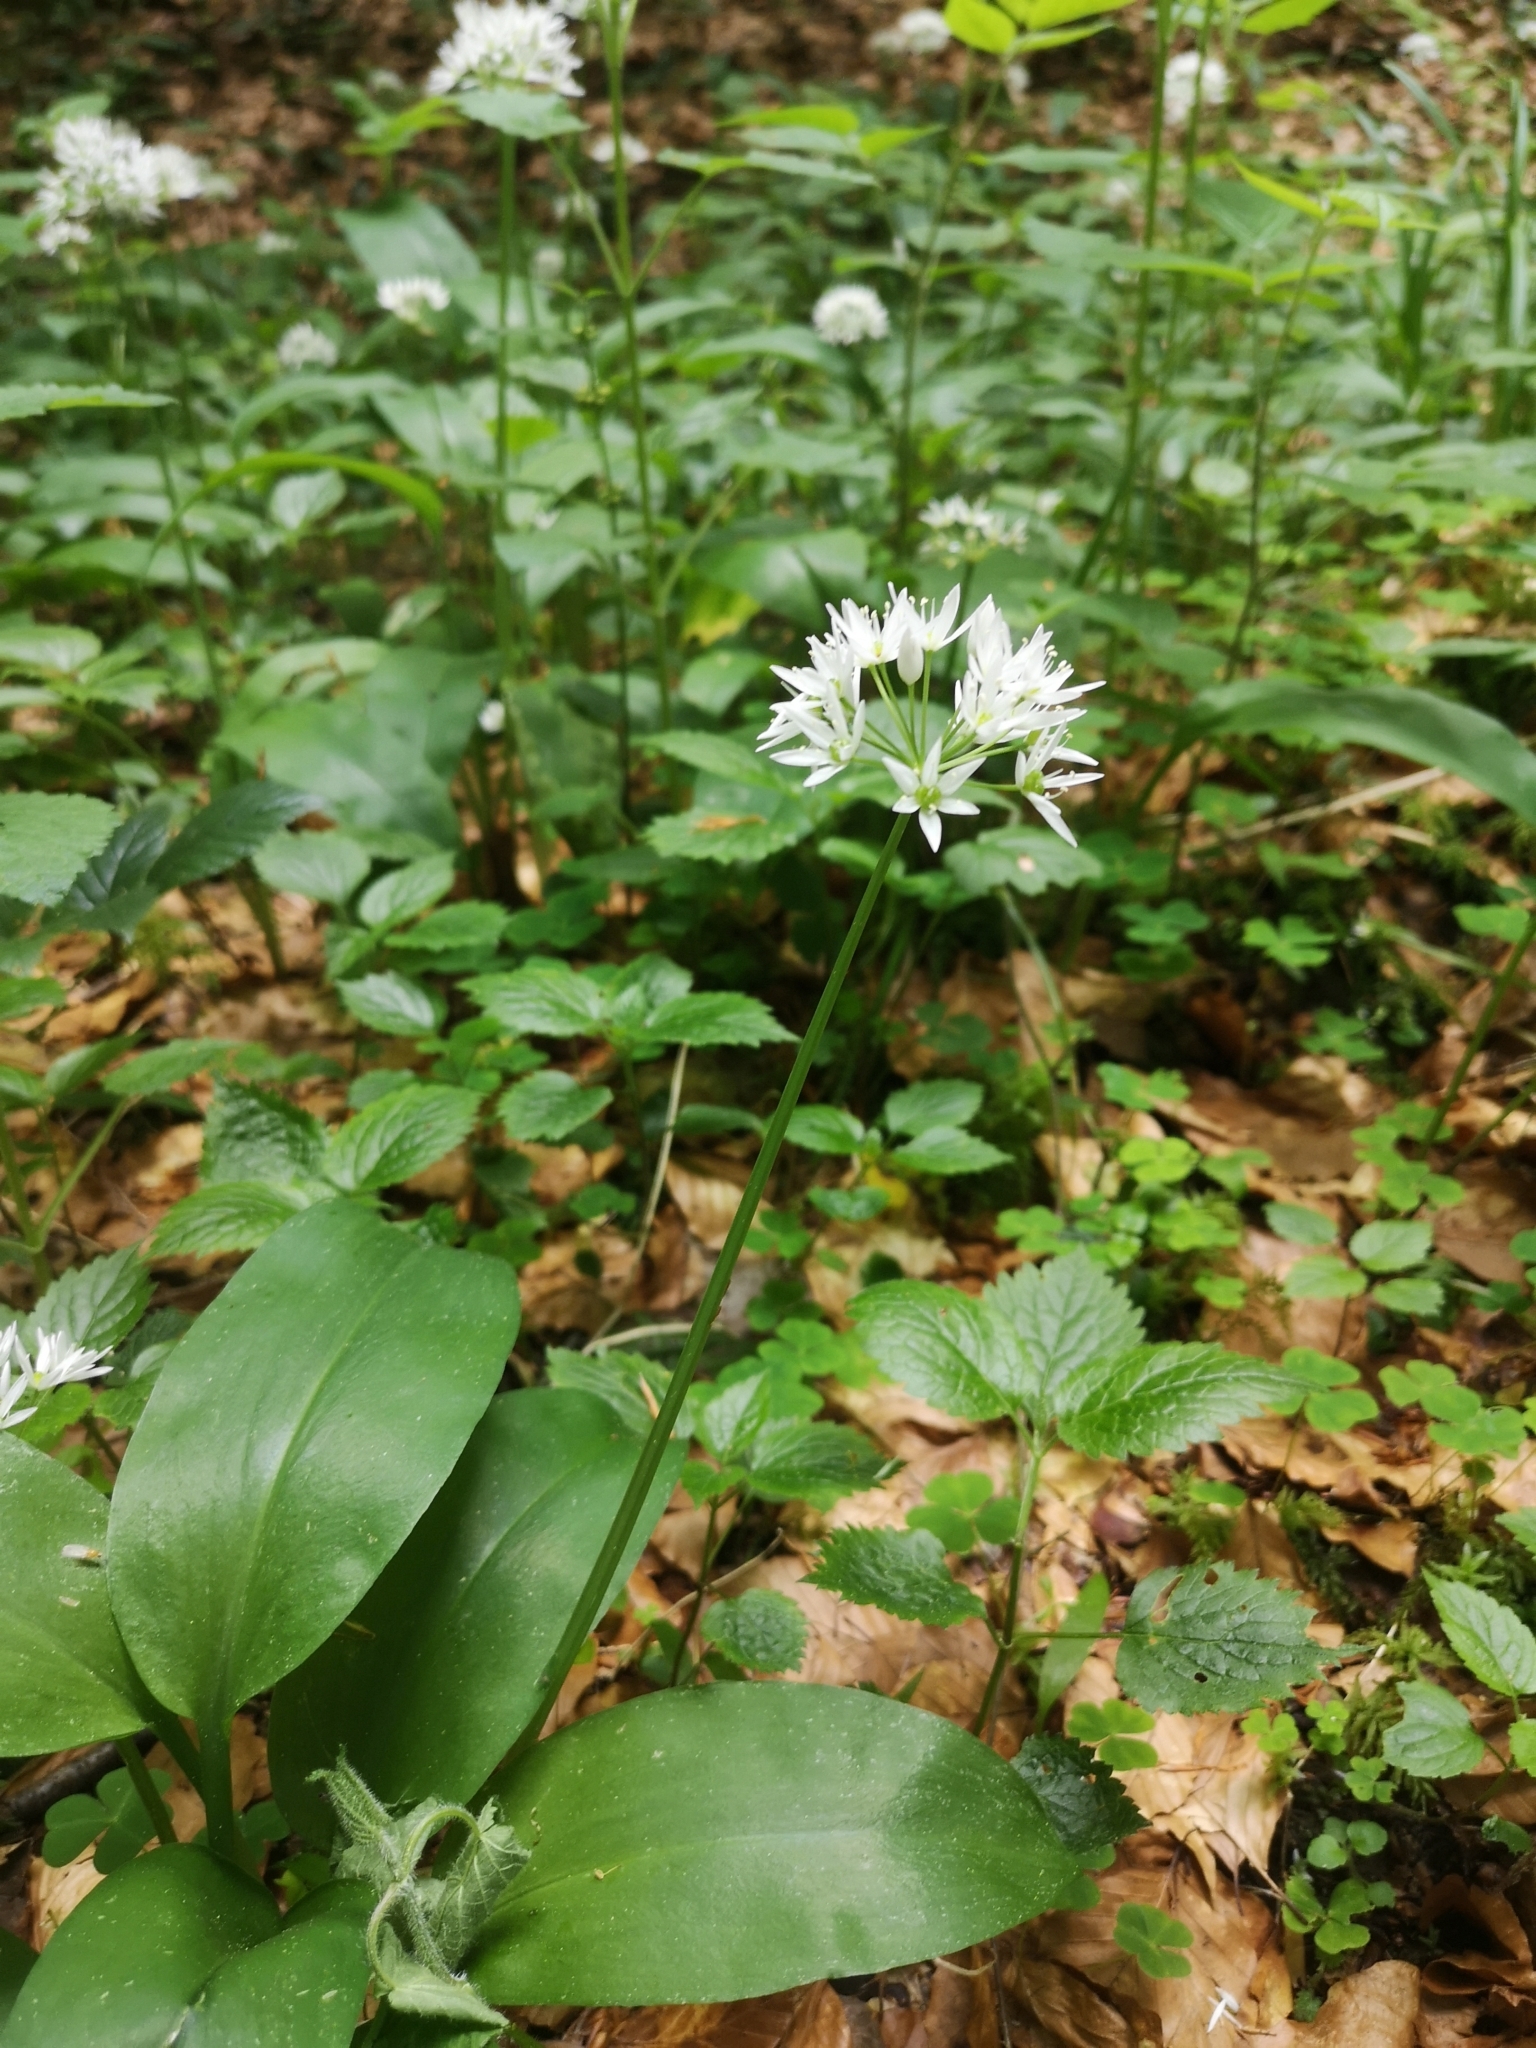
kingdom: Plantae
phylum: Tracheophyta
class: Liliopsida
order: Asparagales
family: Amaryllidaceae
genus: Allium
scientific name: Allium ursinum
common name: Ramsons
